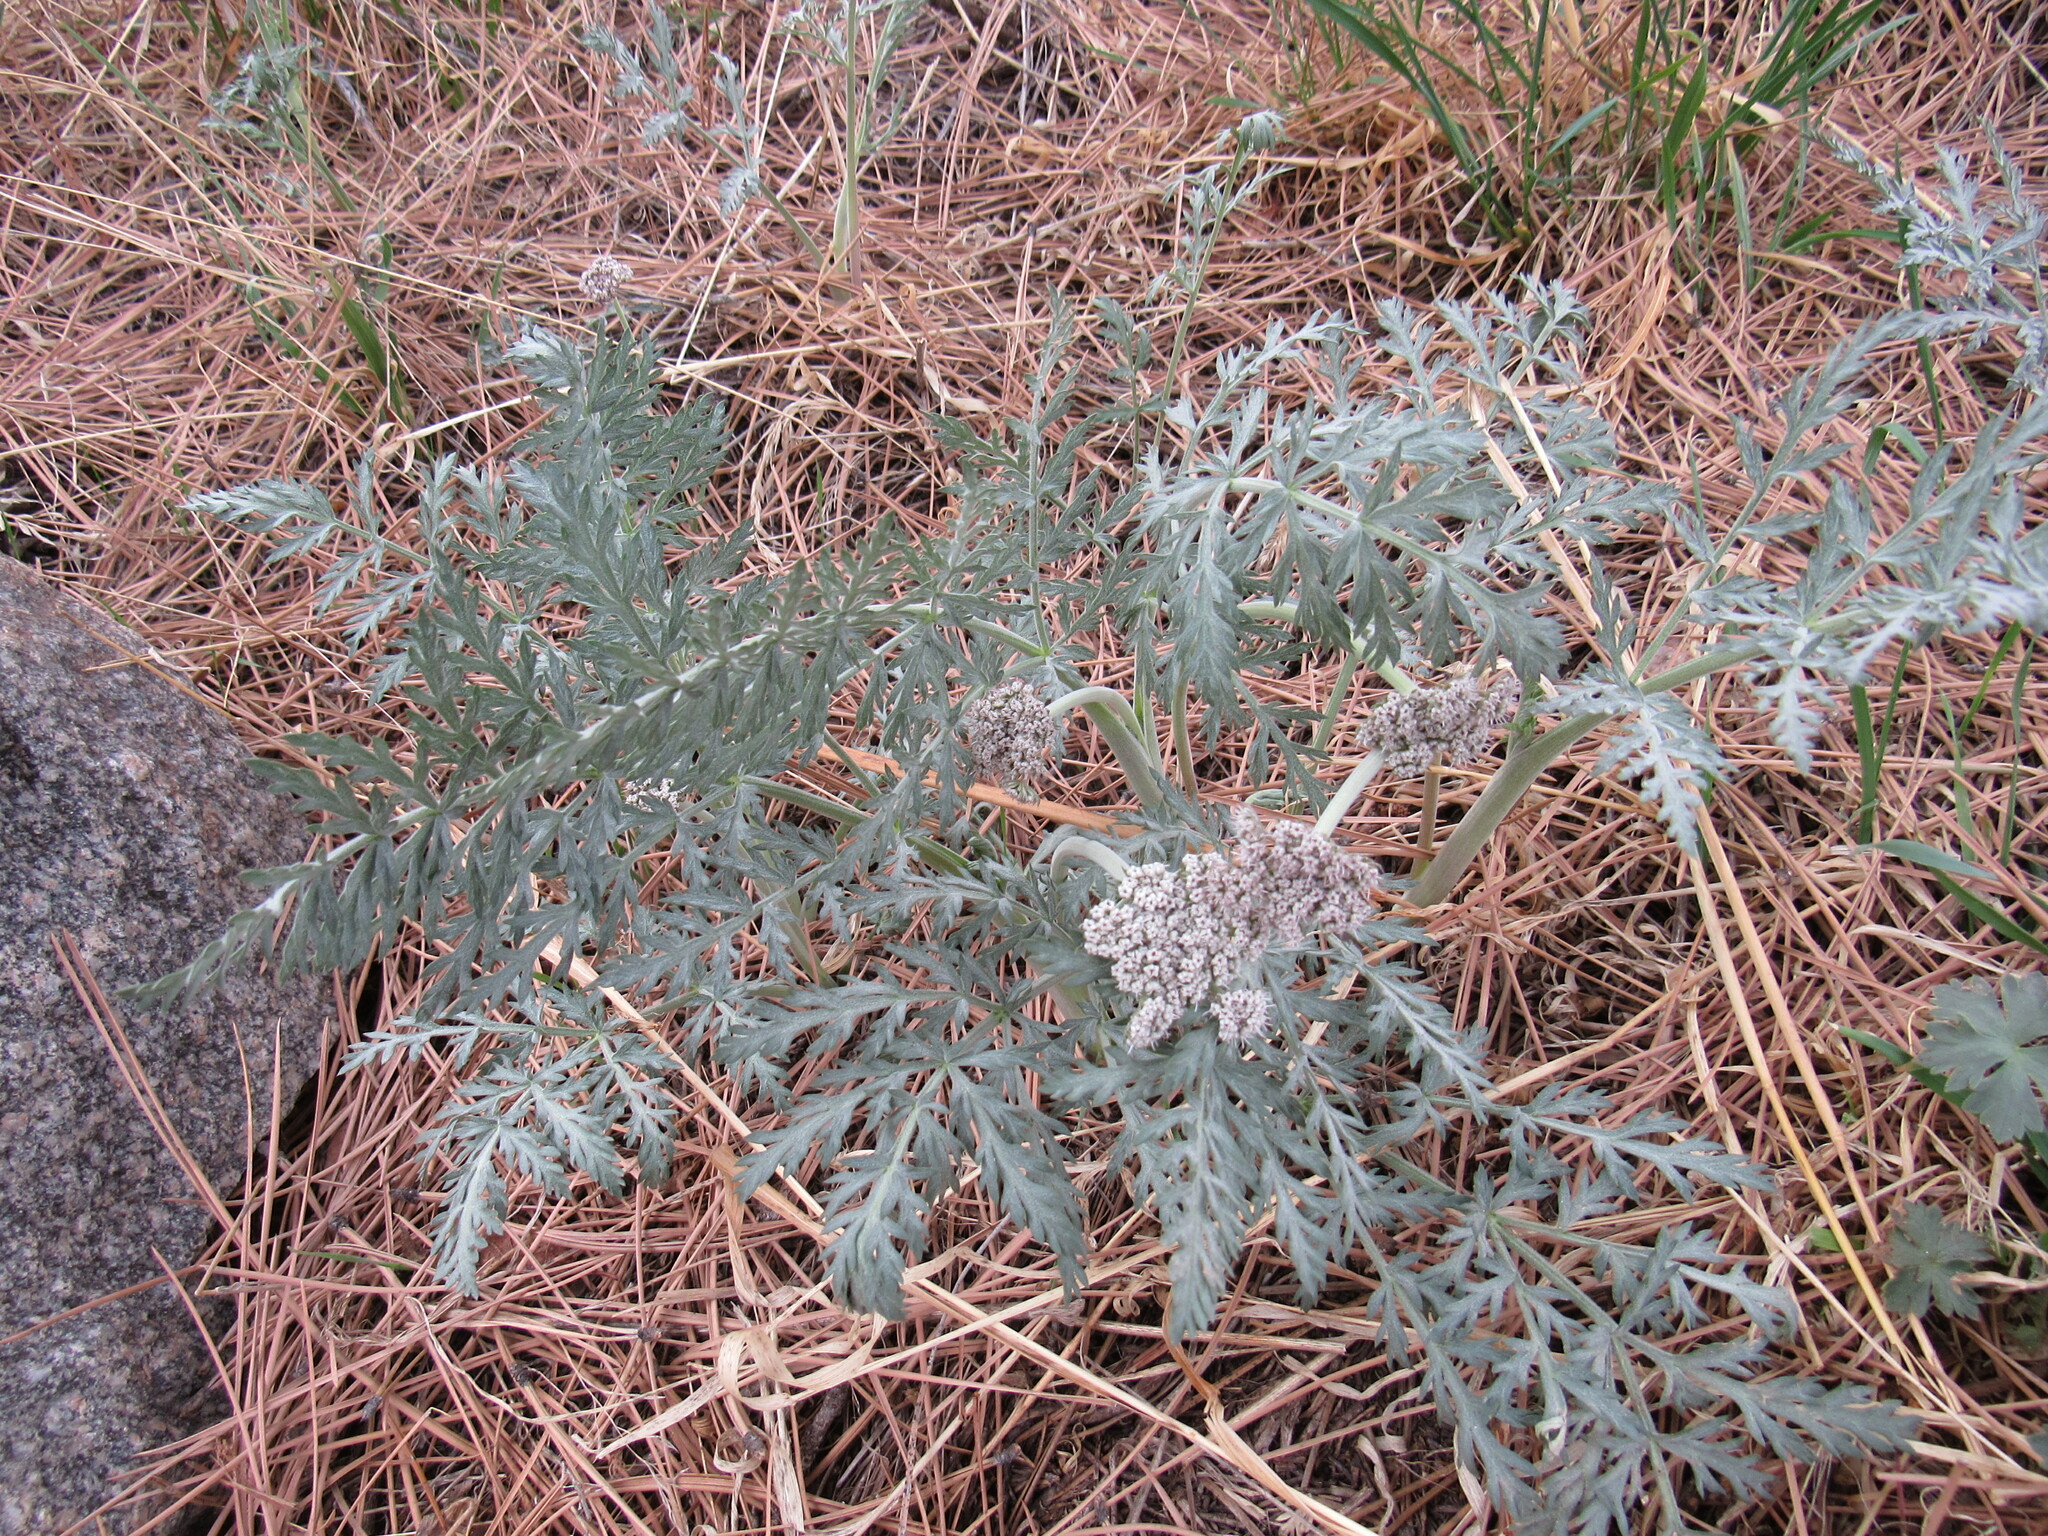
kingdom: Plantae
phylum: Tracheophyta
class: Magnoliopsida
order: Apiales
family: Apiaceae
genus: Lomatium
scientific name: Lomatium orientale
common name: Eastern cous
